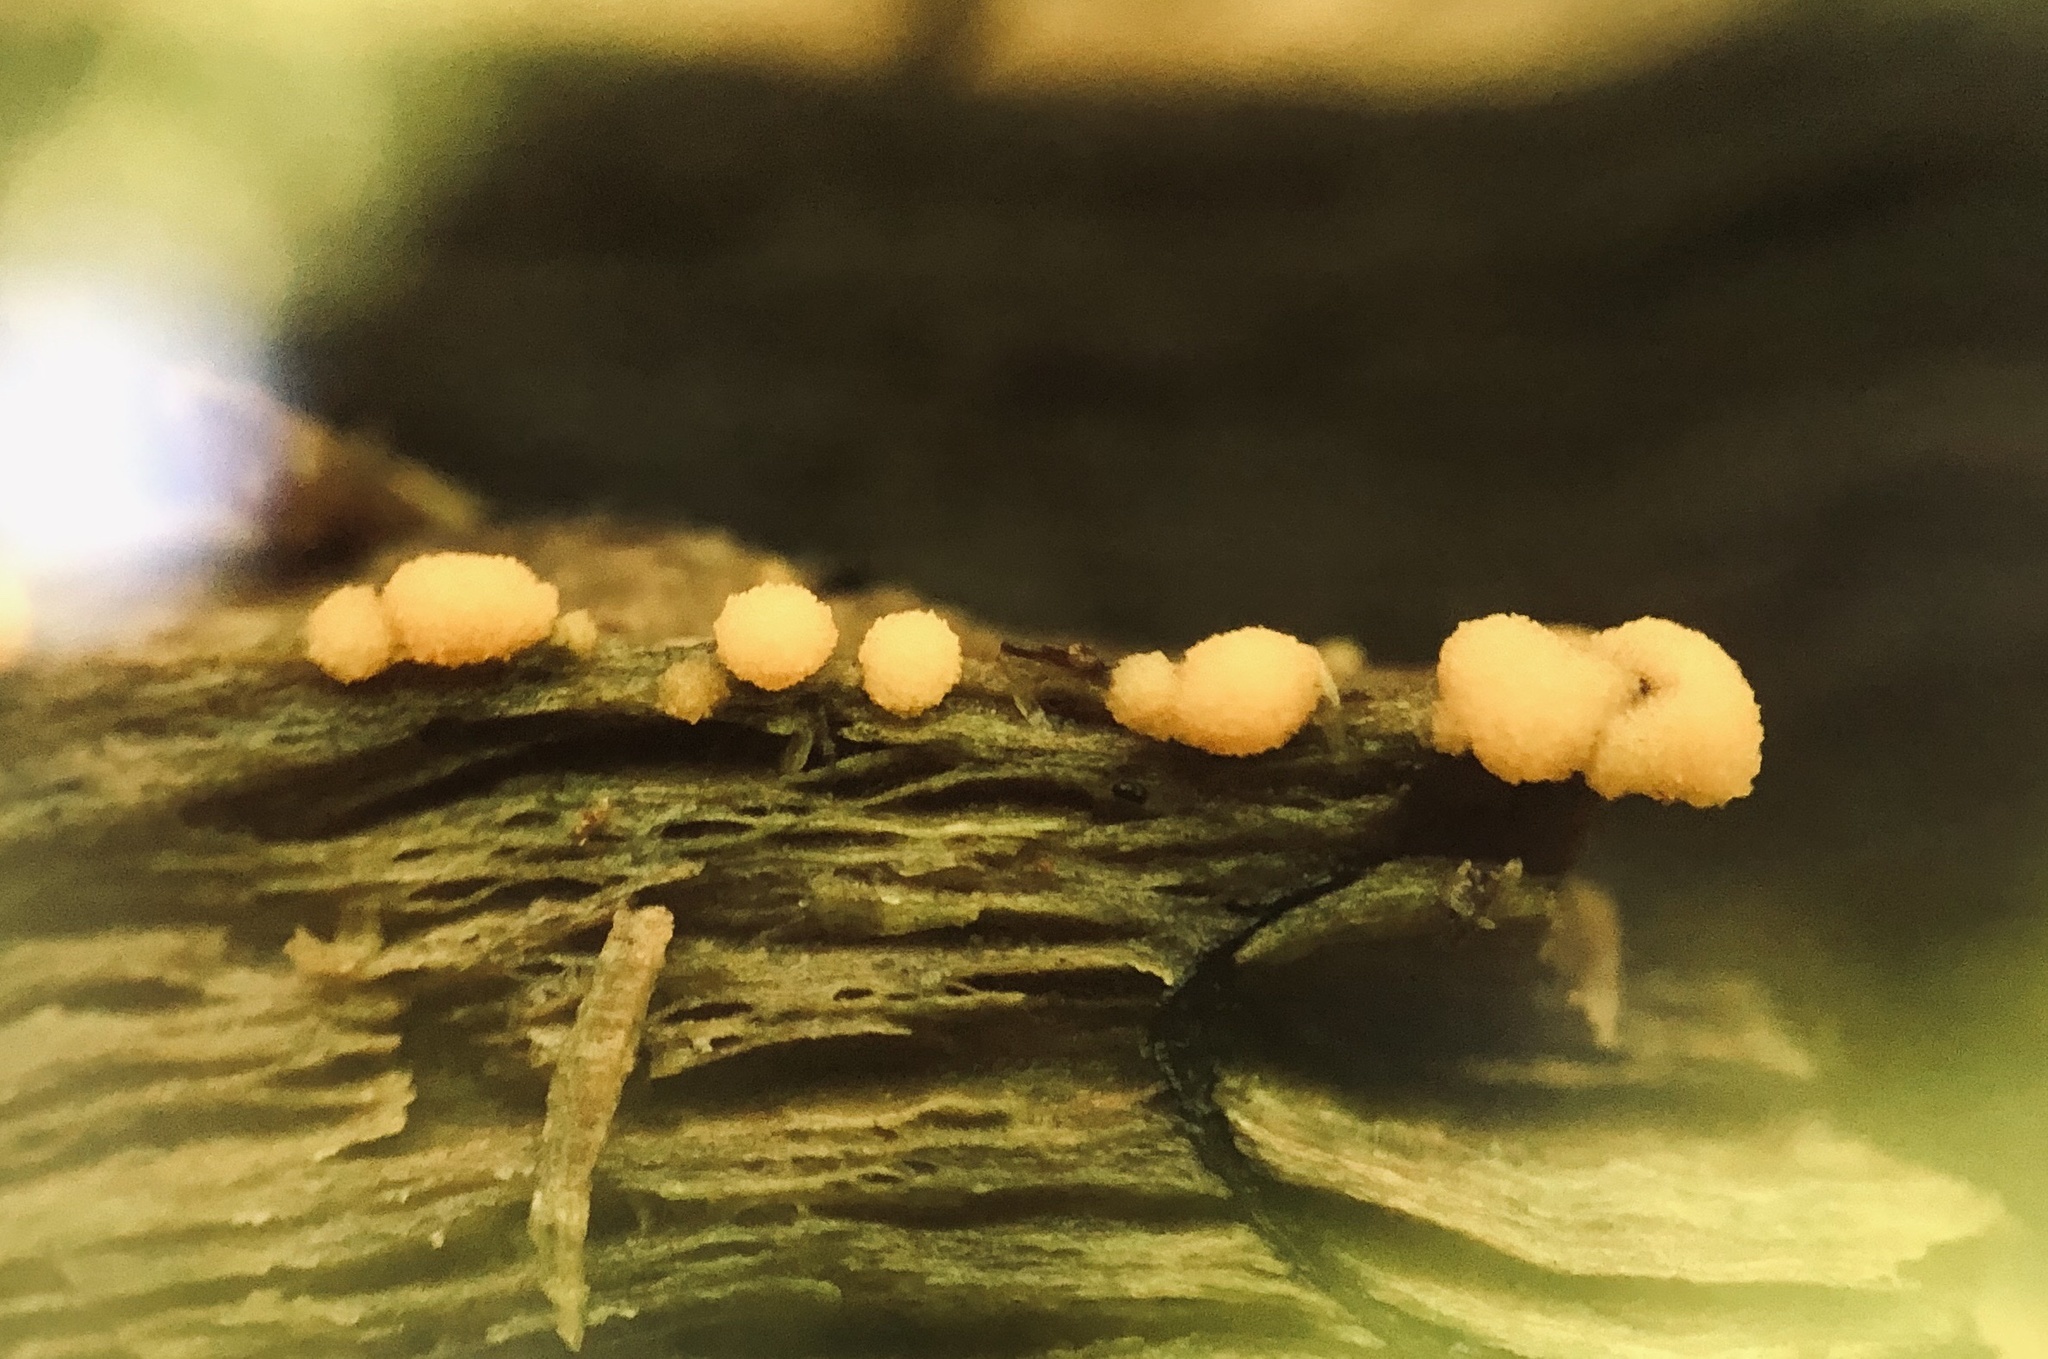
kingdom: Fungi
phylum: Ascomycota
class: Pezizomycetes
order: Pezizales
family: Pyronemataceae
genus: Sphaerosporium
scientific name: Sphaerosporium lignatile
